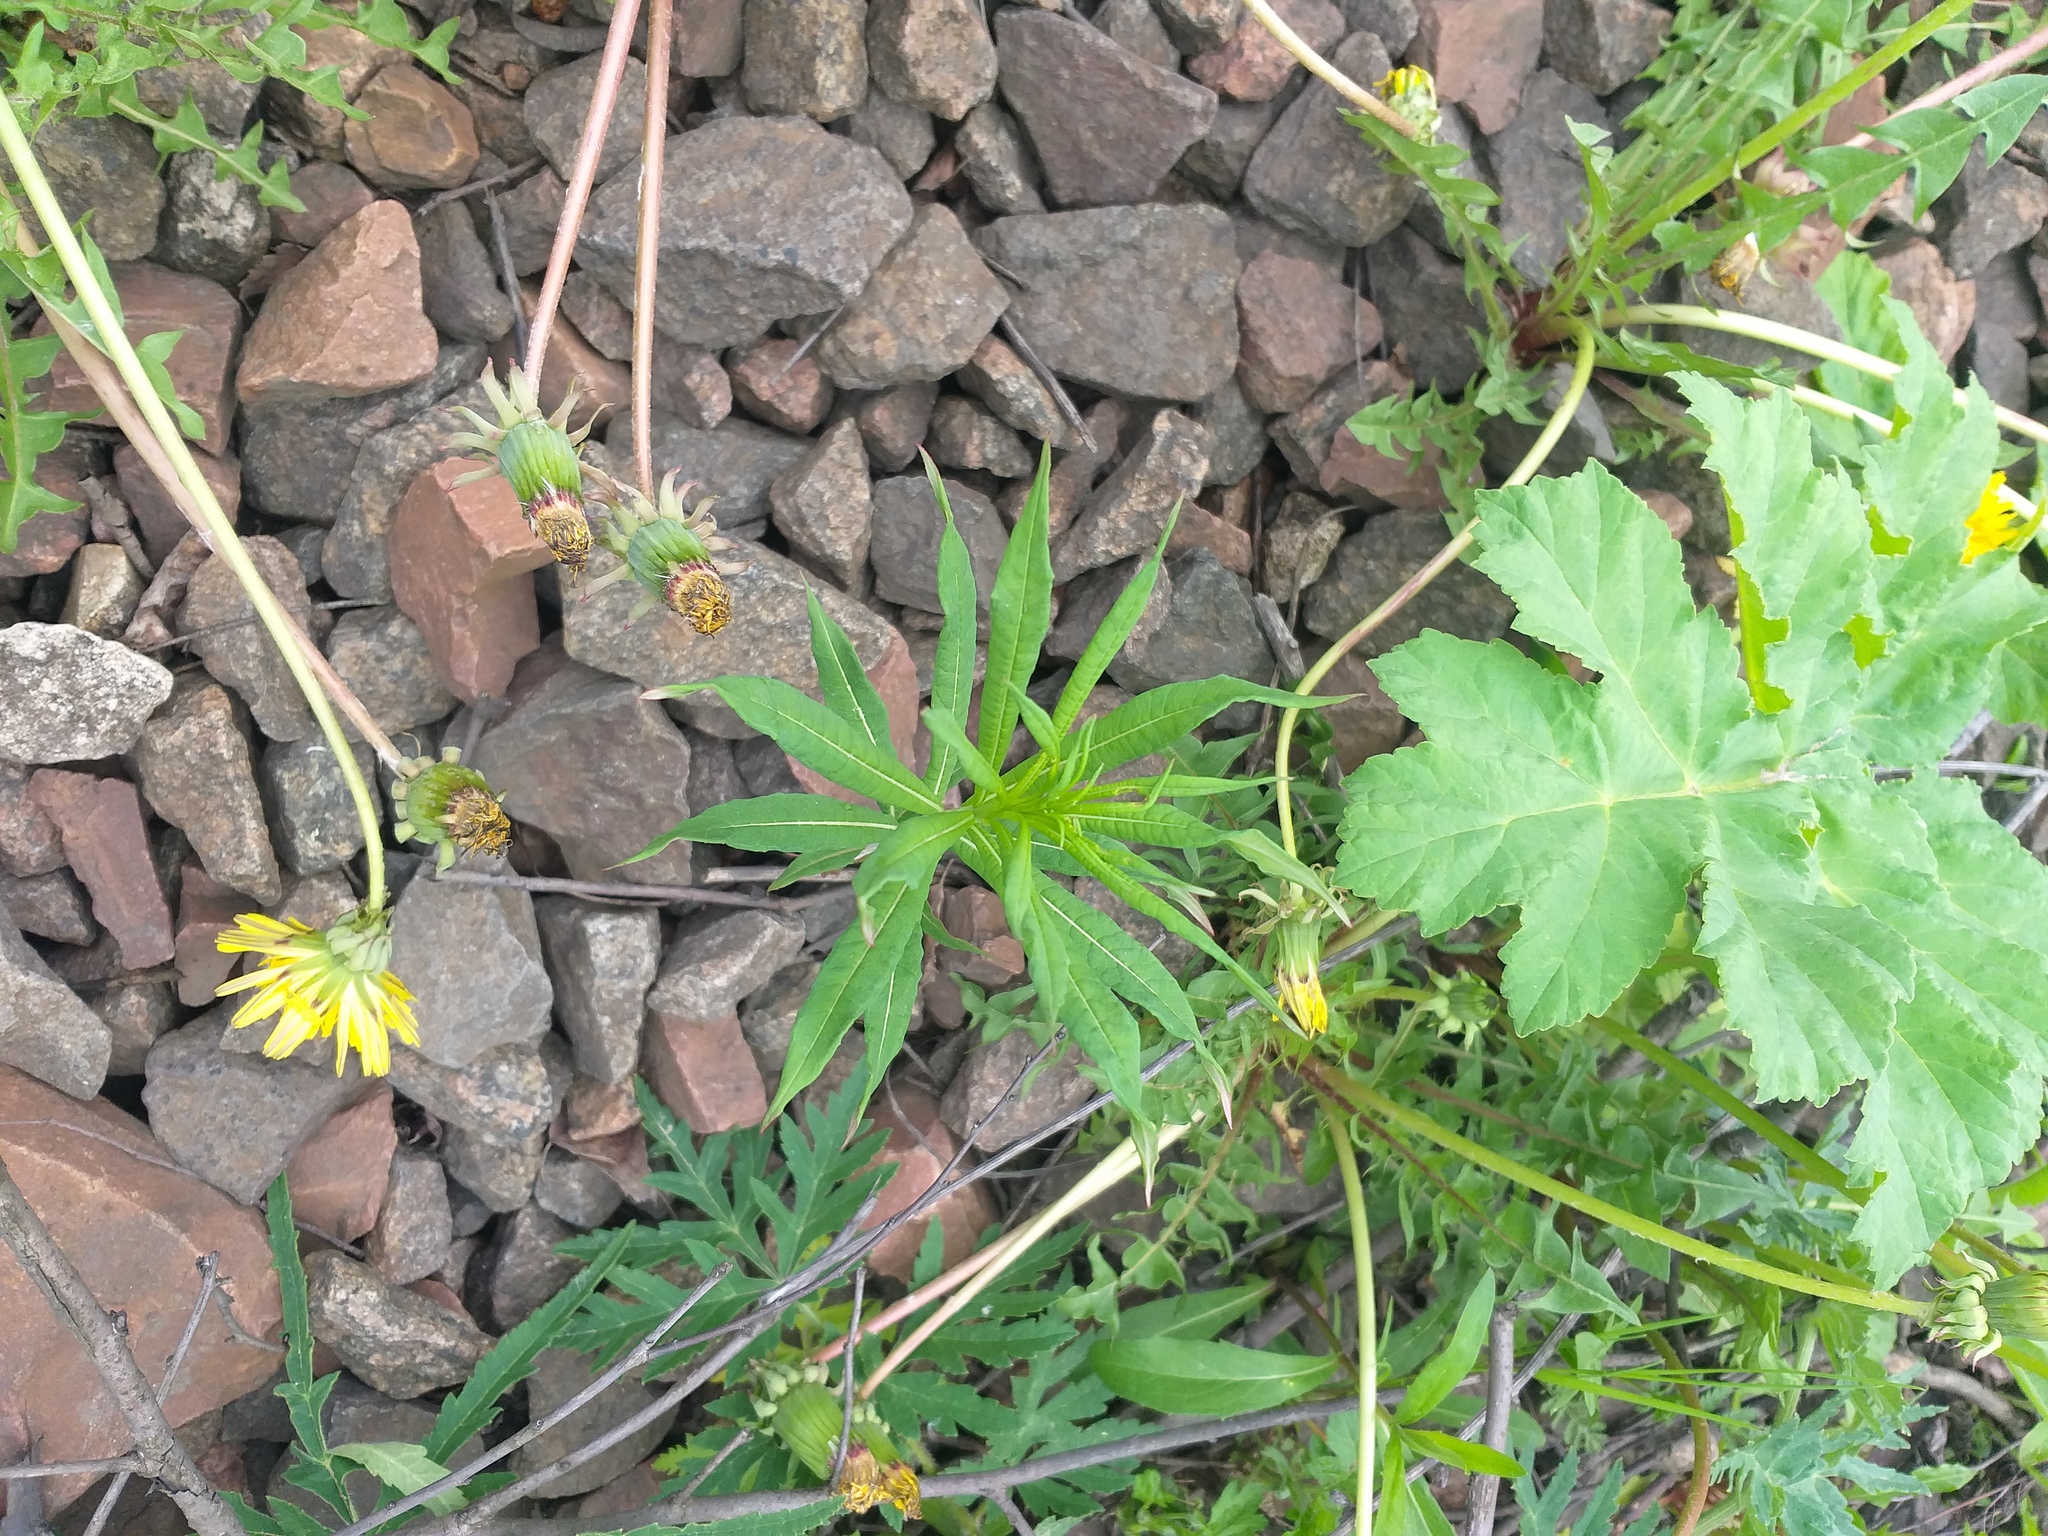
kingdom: Plantae
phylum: Tracheophyta
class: Magnoliopsida
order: Myrtales
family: Onagraceae
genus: Chamaenerion
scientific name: Chamaenerion angustifolium
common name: Fireweed
